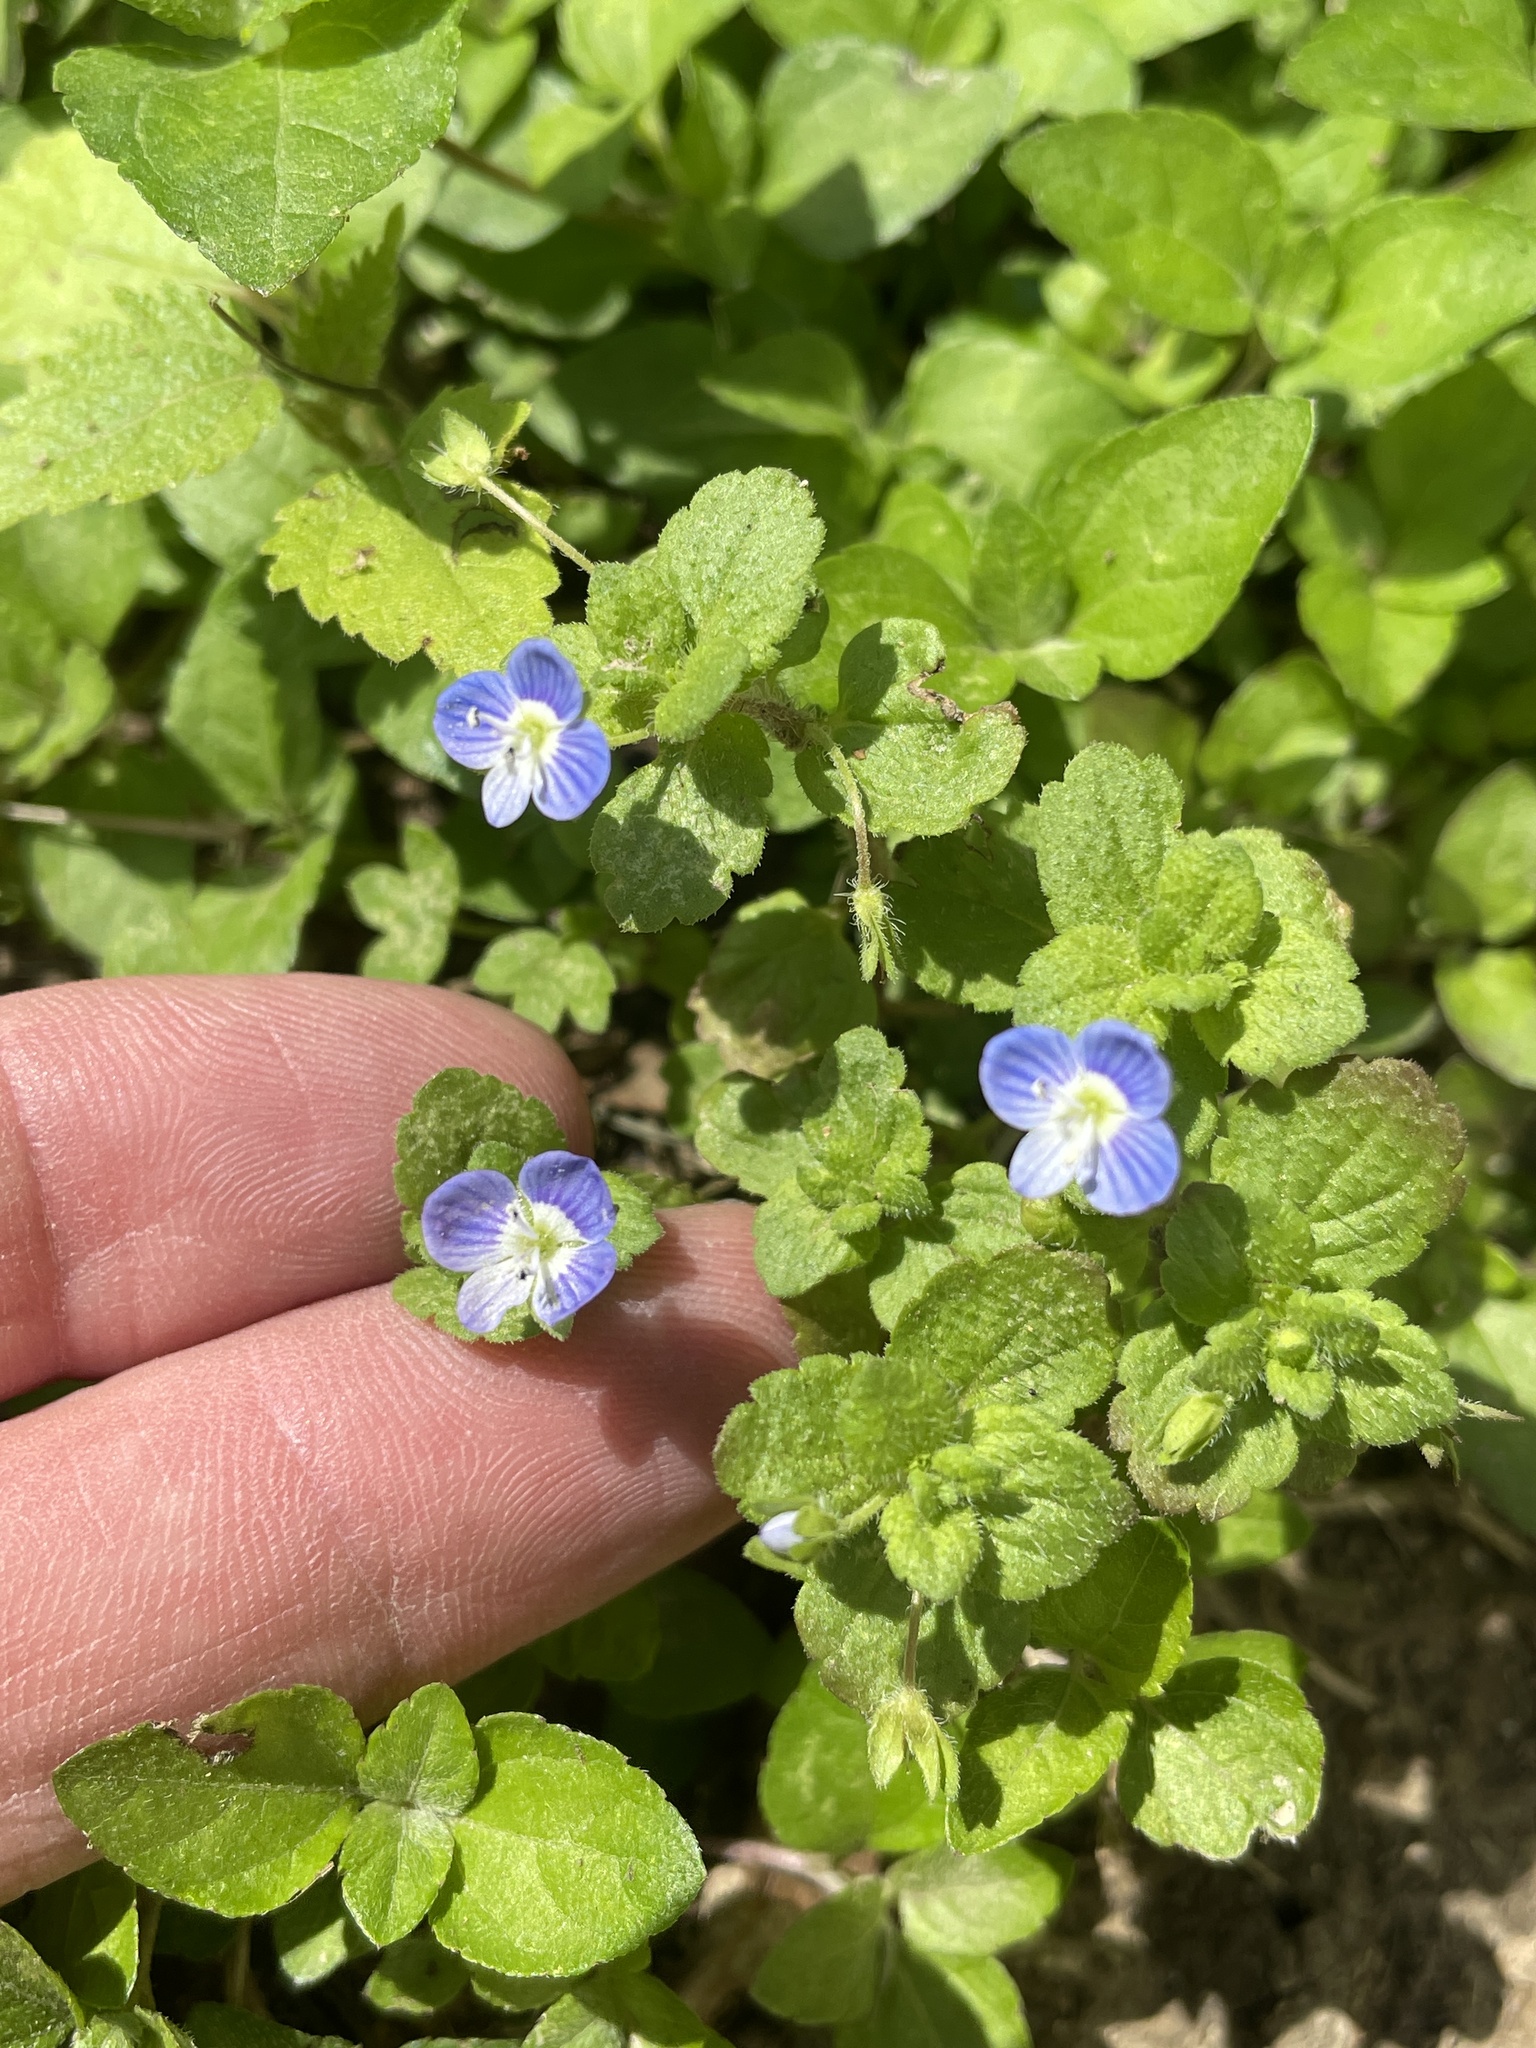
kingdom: Plantae
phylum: Tracheophyta
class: Magnoliopsida
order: Lamiales
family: Plantaginaceae
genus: Veronica
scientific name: Veronica persica
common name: Common field-speedwell
